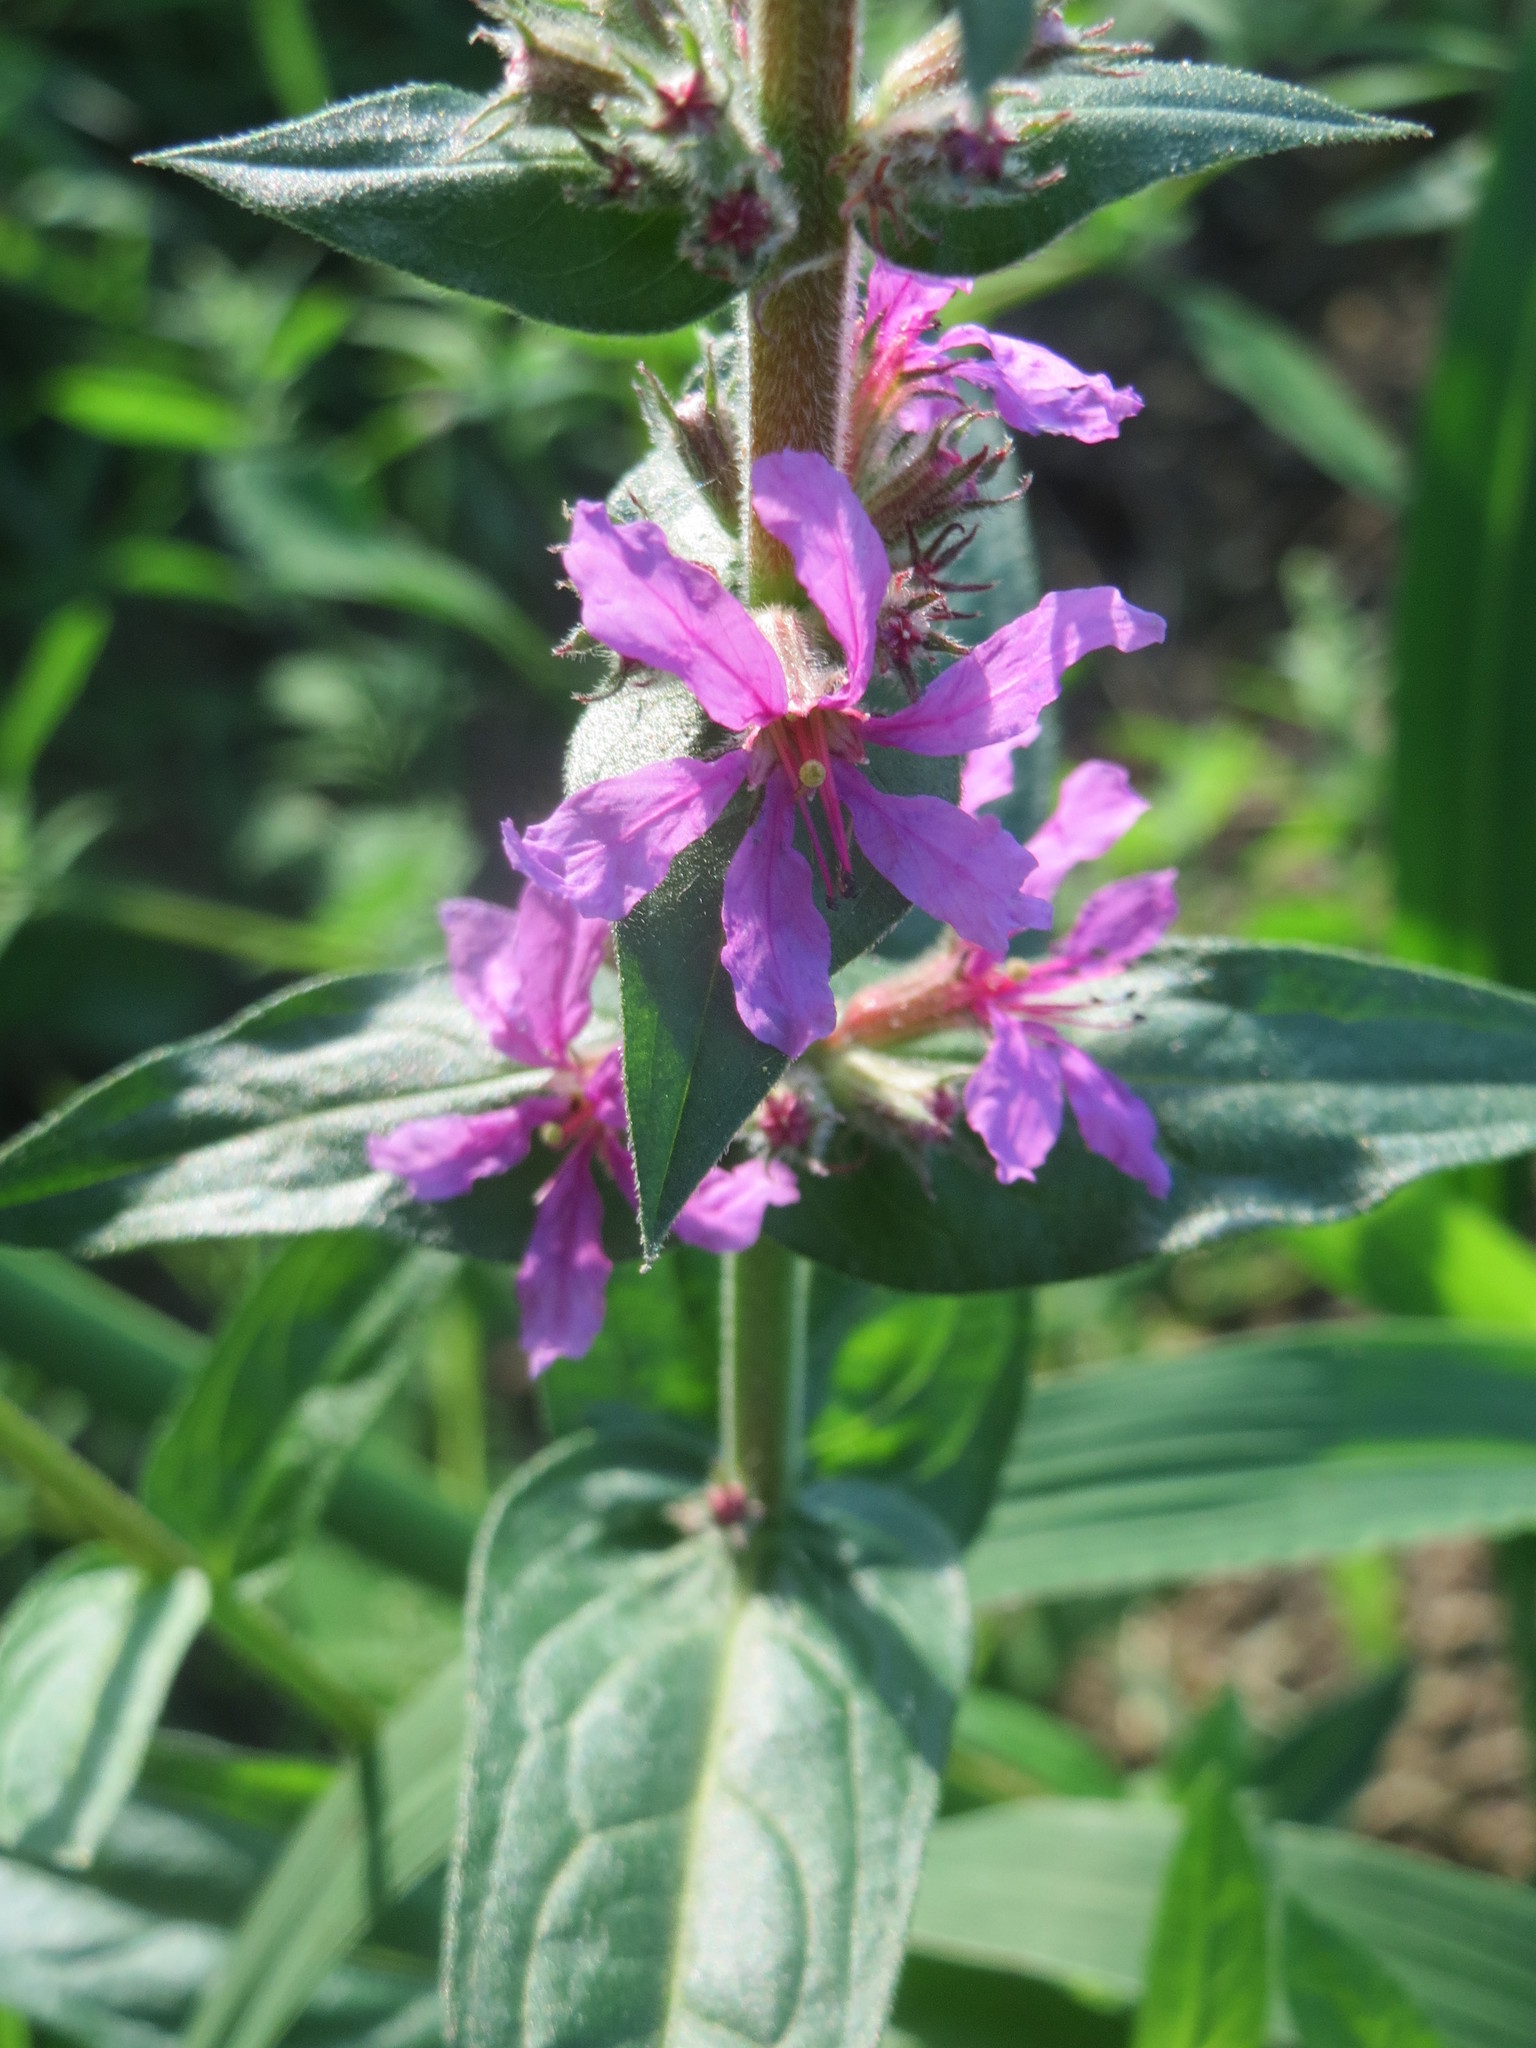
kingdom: Plantae
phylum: Tracheophyta
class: Magnoliopsida
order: Myrtales
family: Lythraceae
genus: Lythrum
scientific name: Lythrum salicaria
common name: Purple loosestrife
